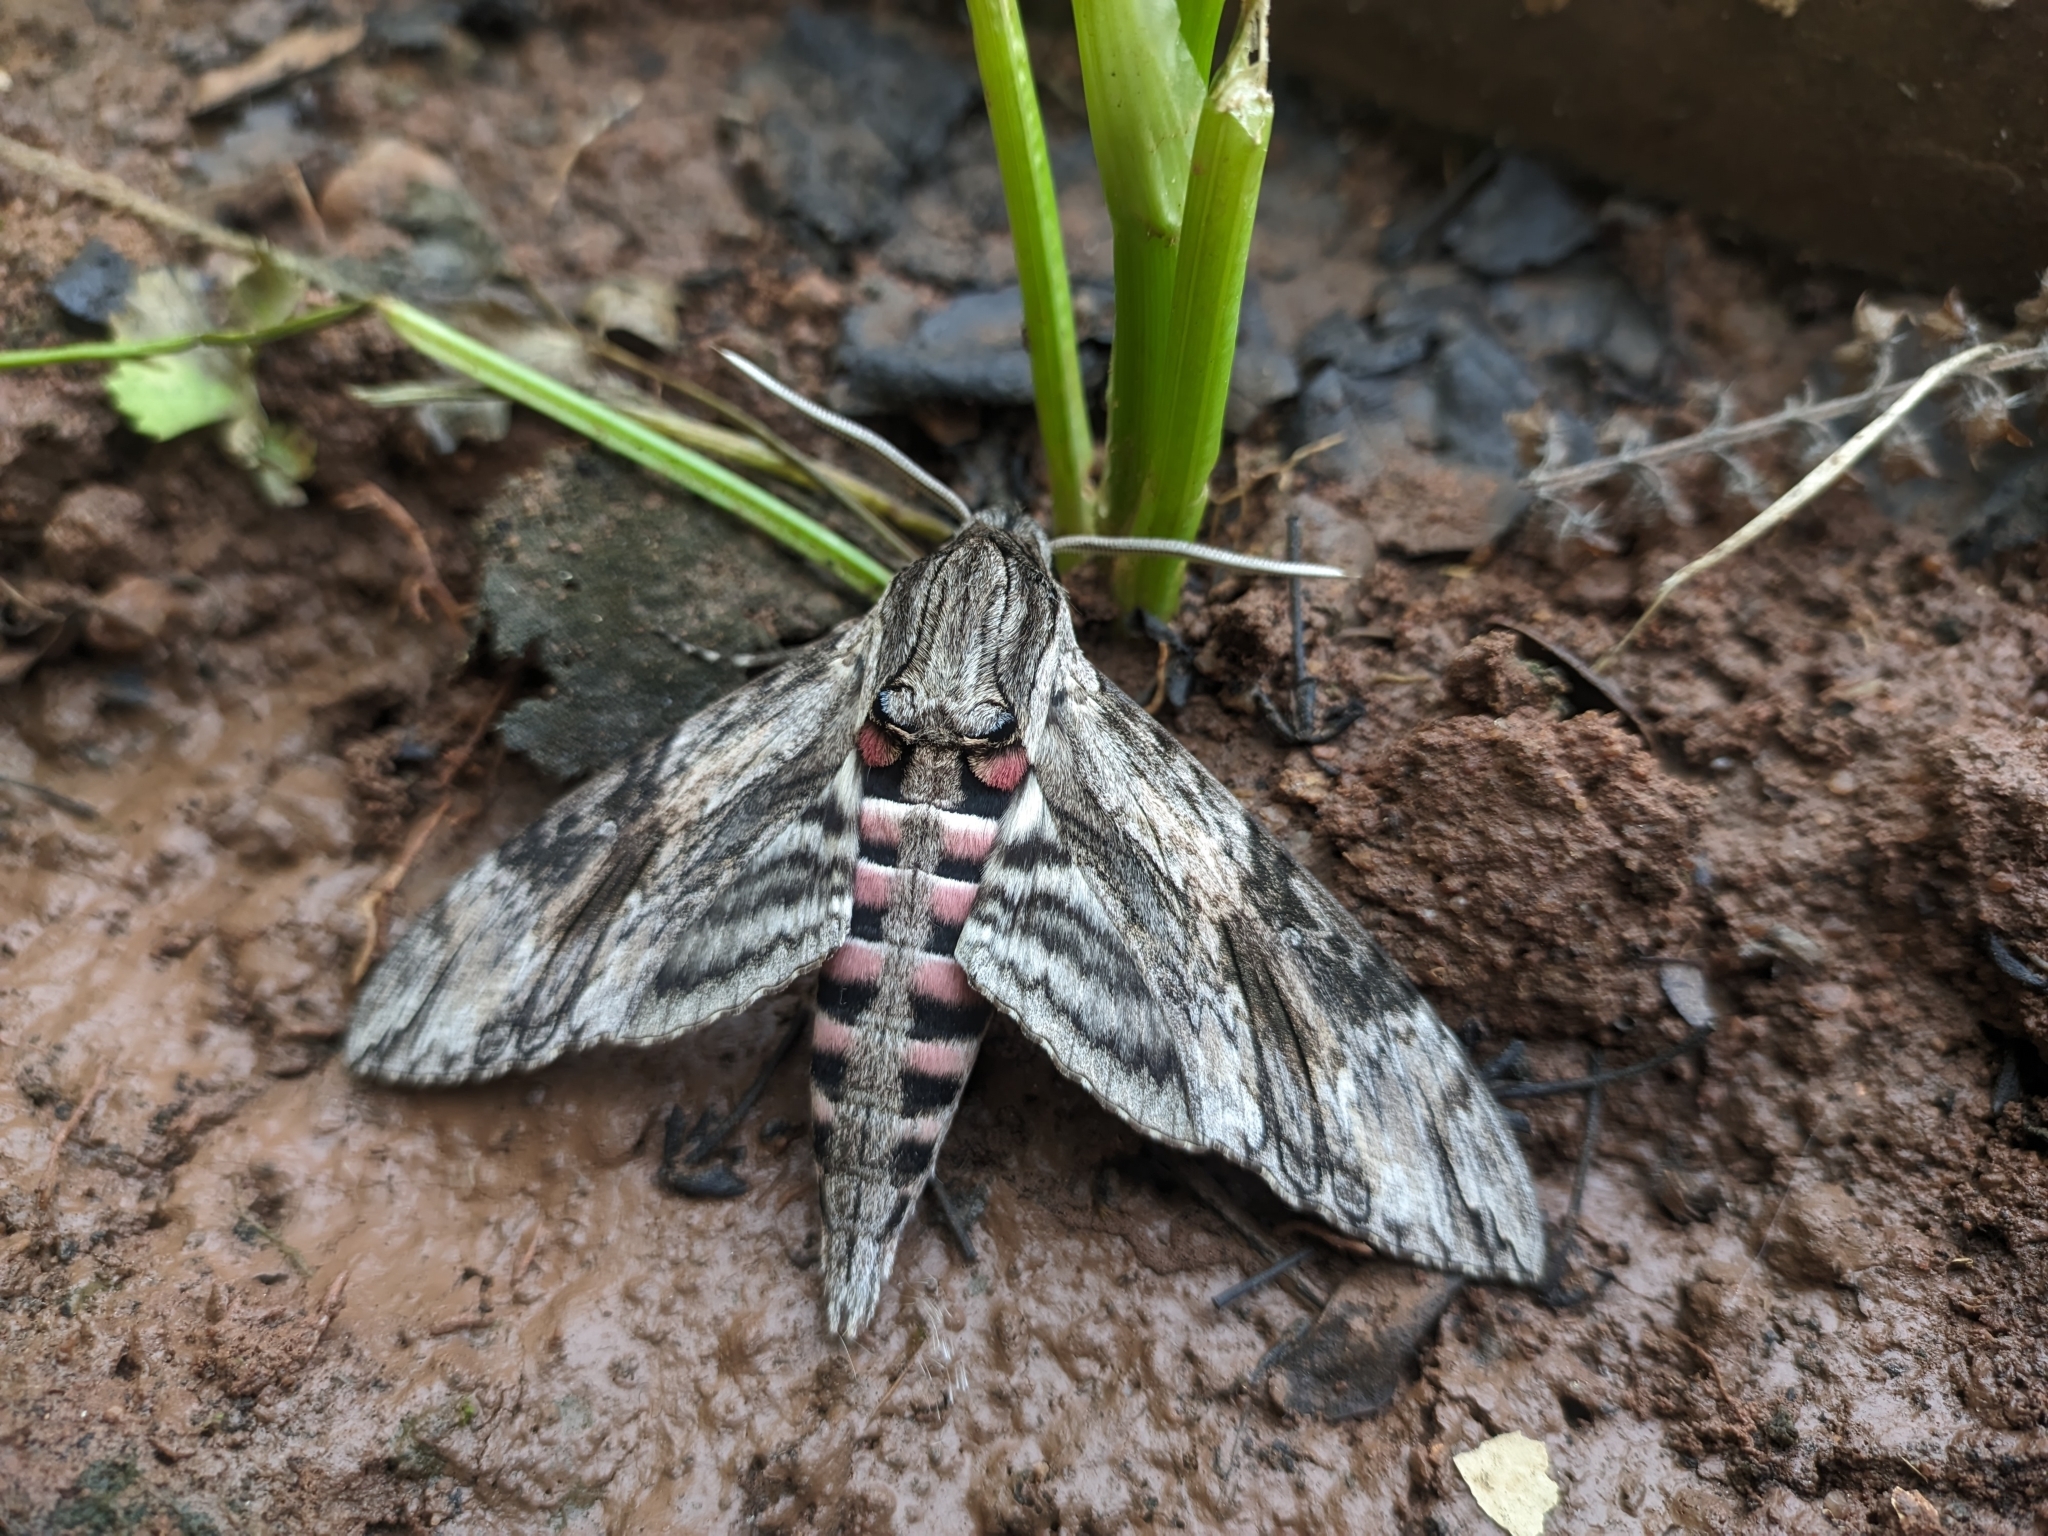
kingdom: Animalia
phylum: Arthropoda
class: Insecta
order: Lepidoptera
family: Sphingidae
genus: Agrius
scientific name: Agrius convolvuli
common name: Convolvulus hawkmoth
